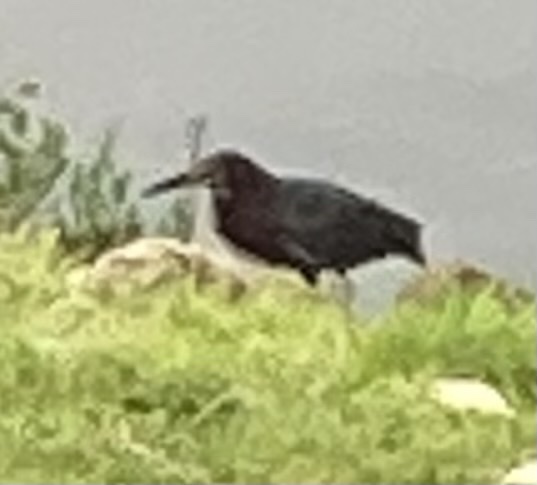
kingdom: Animalia
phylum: Chordata
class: Aves
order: Pelecaniformes
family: Ardeidae
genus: Butorides
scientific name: Butorides virescens
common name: Green heron
